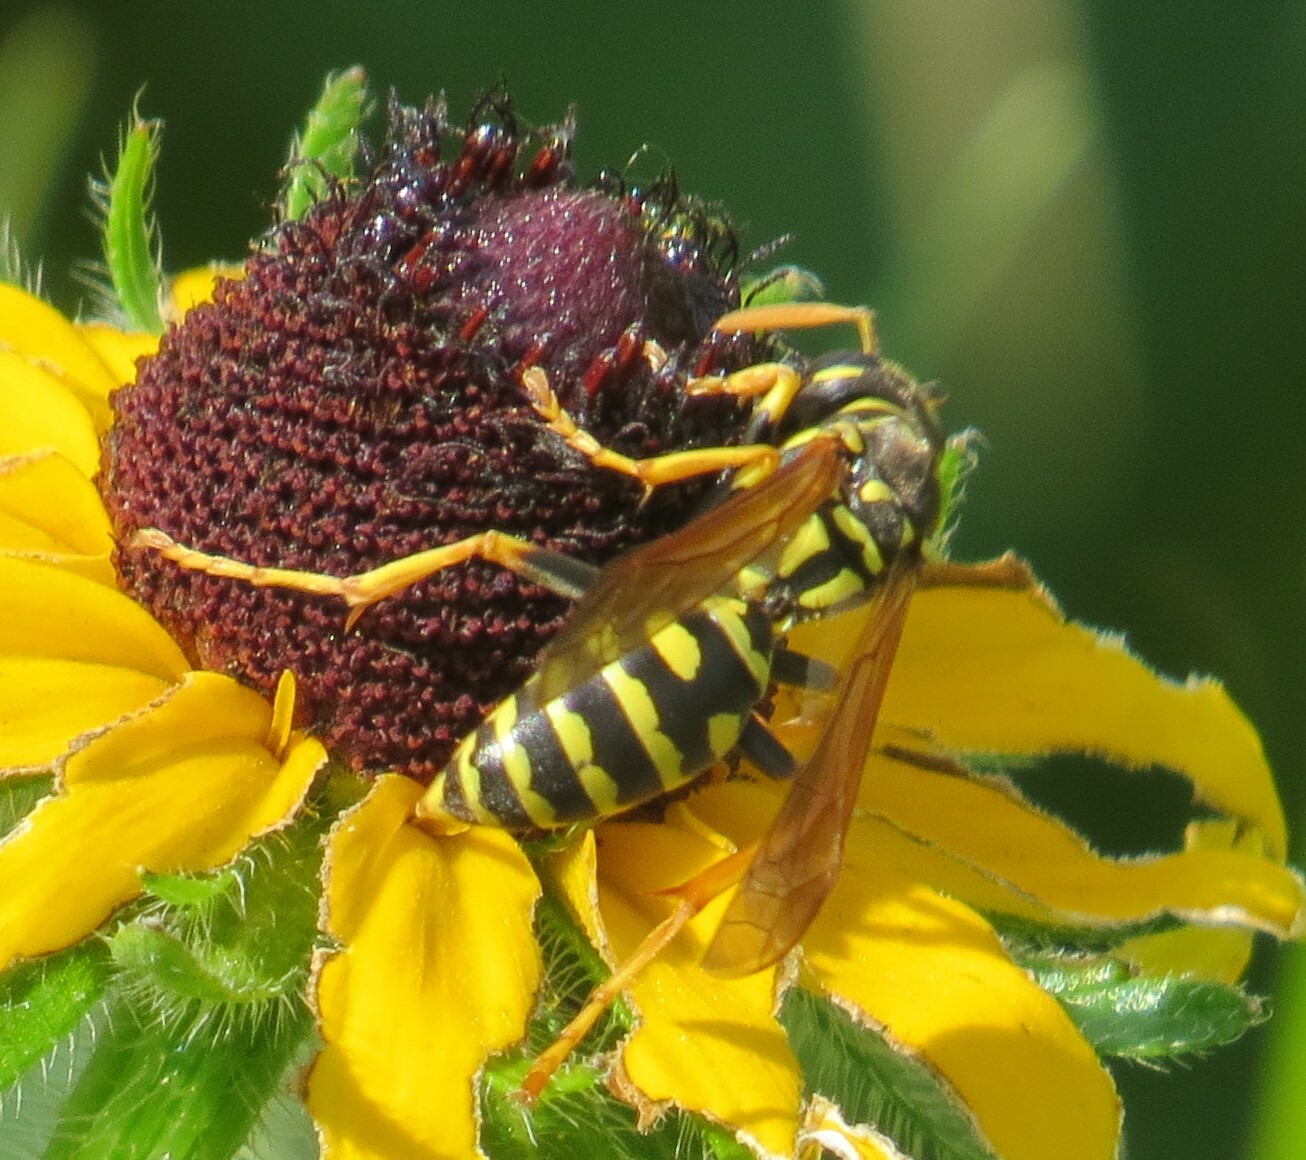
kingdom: Animalia
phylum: Arthropoda
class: Insecta
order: Hymenoptera
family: Eumenidae
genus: Polistes
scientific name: Polistes dominula
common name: Paper wasp
